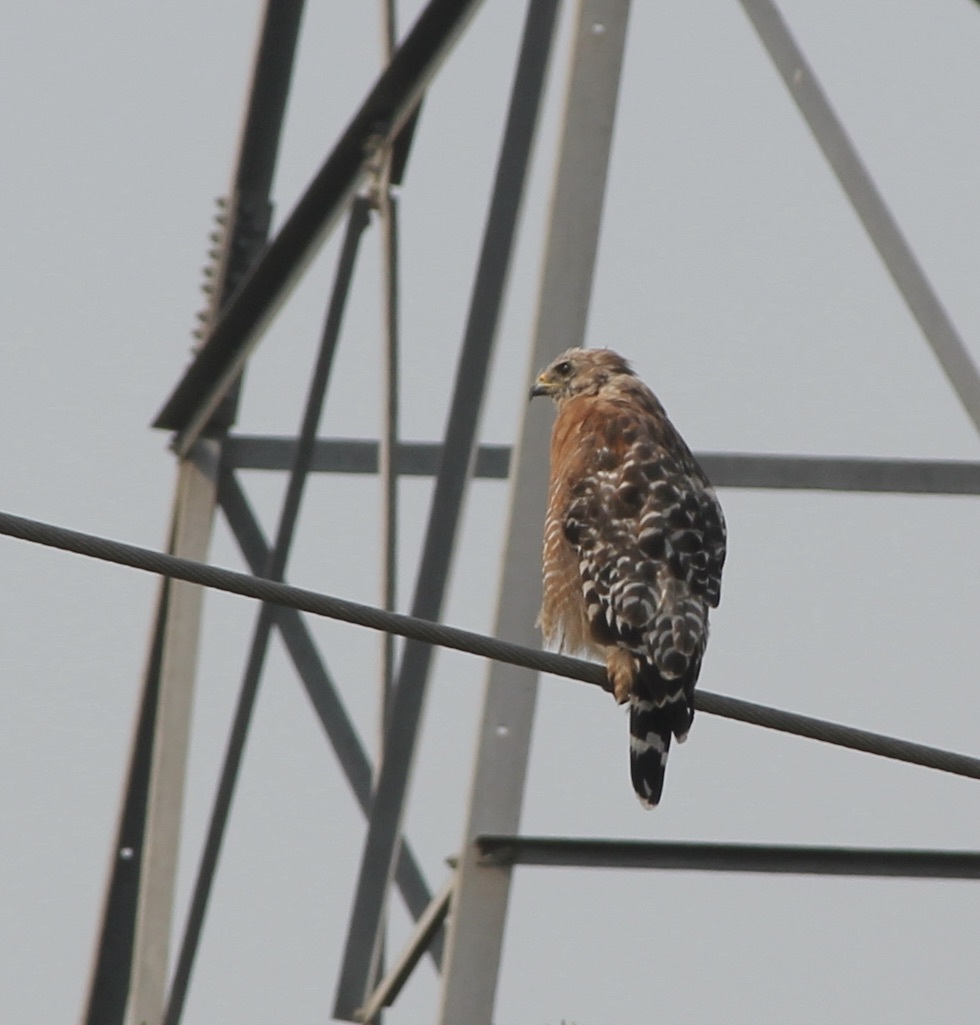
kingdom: Animalia
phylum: Chordata
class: Aves
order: Accipitriformes
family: Accipitridae
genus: Buteo
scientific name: Buteo lineatus
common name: Red-shouldered hawk
